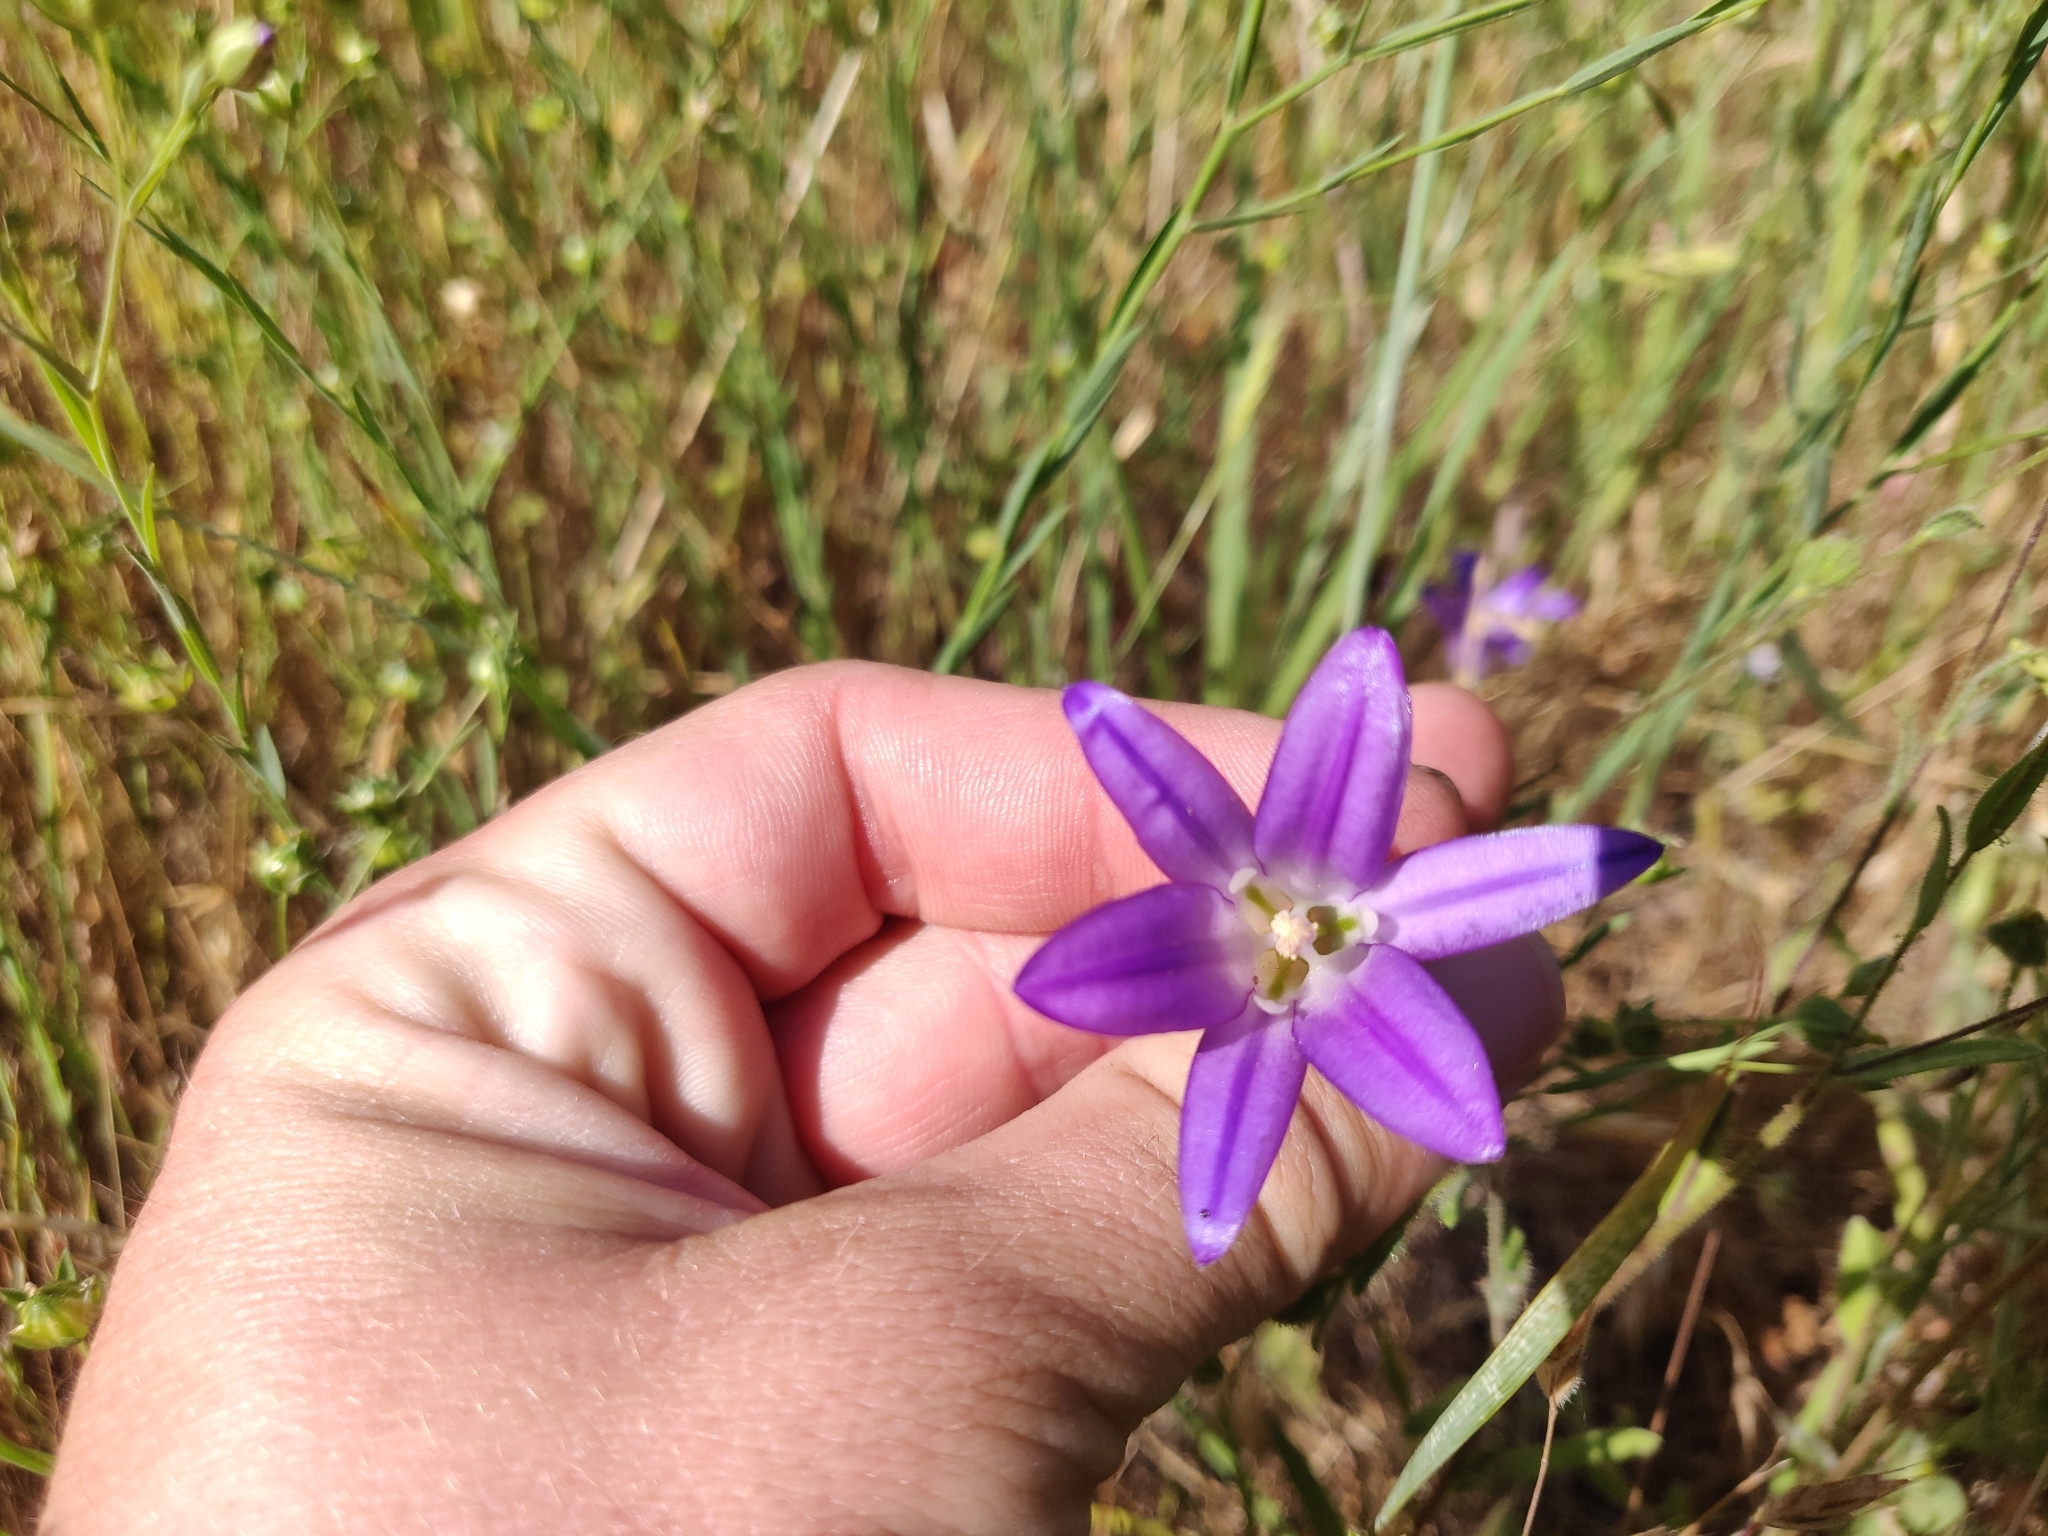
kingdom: Plantae
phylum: Tracheophyta
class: Liliopsida
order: Asparagales
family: Asparagaceae
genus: Brodiaea
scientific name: Brodiaea elegans
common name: Elegant cluster-lily
